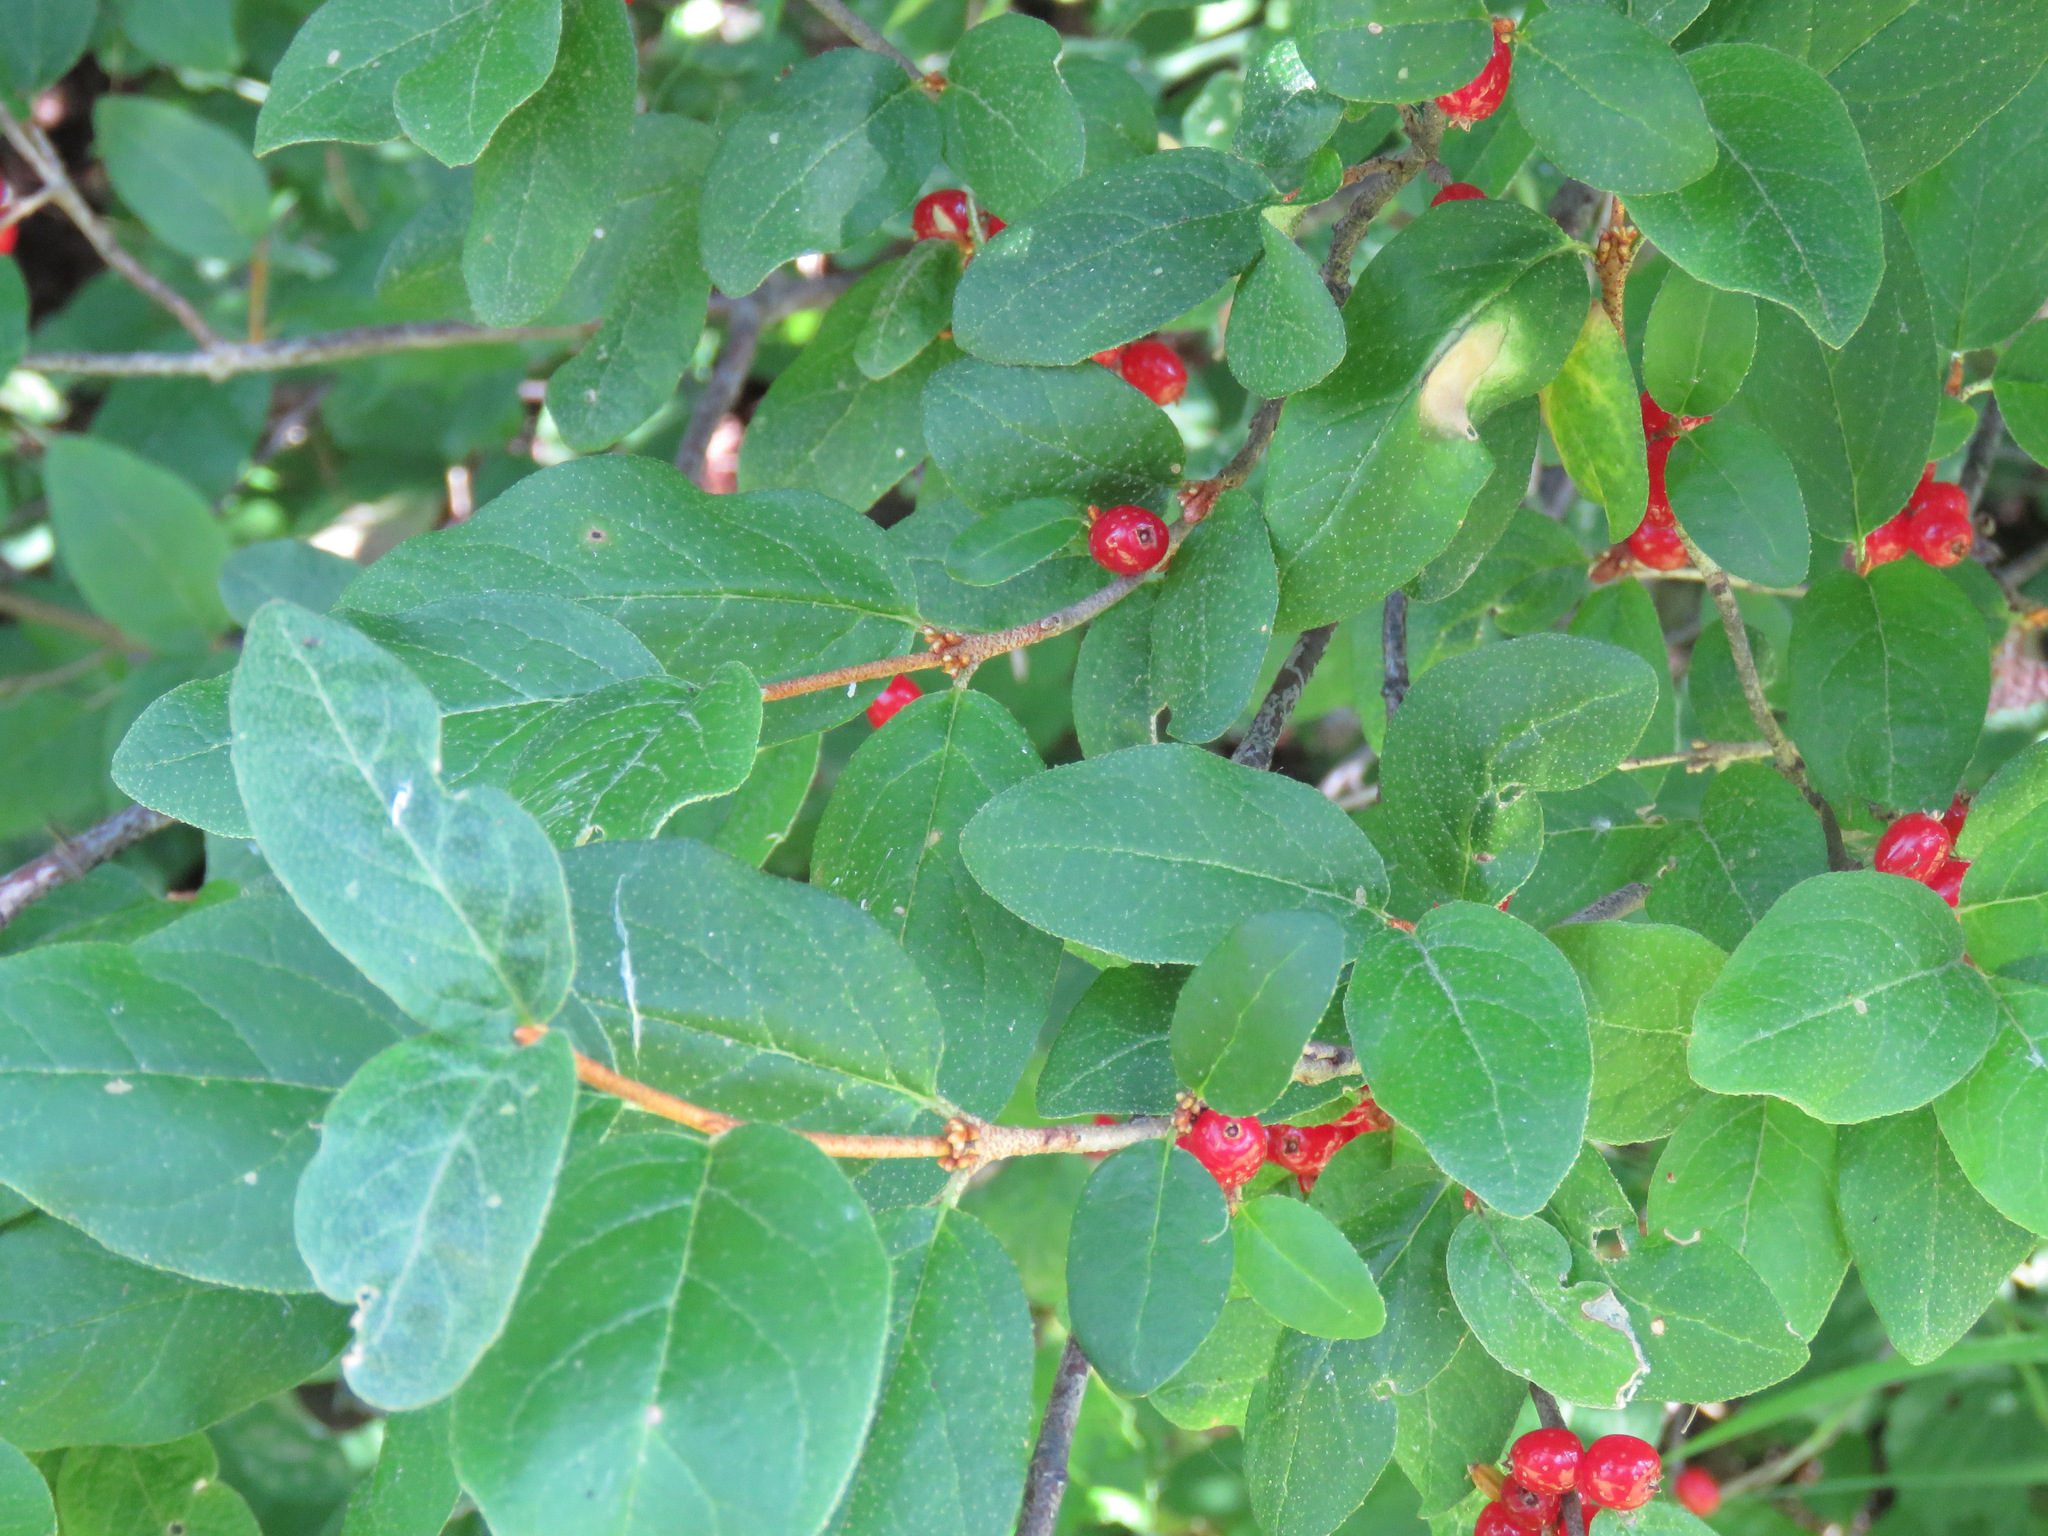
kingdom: Plantae
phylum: Tracheophyta
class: Magnoliopsida
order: Rosales
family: Elaeagnaceae
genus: Shepherdia
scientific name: Shepherdia canadensis
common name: Soapberry
